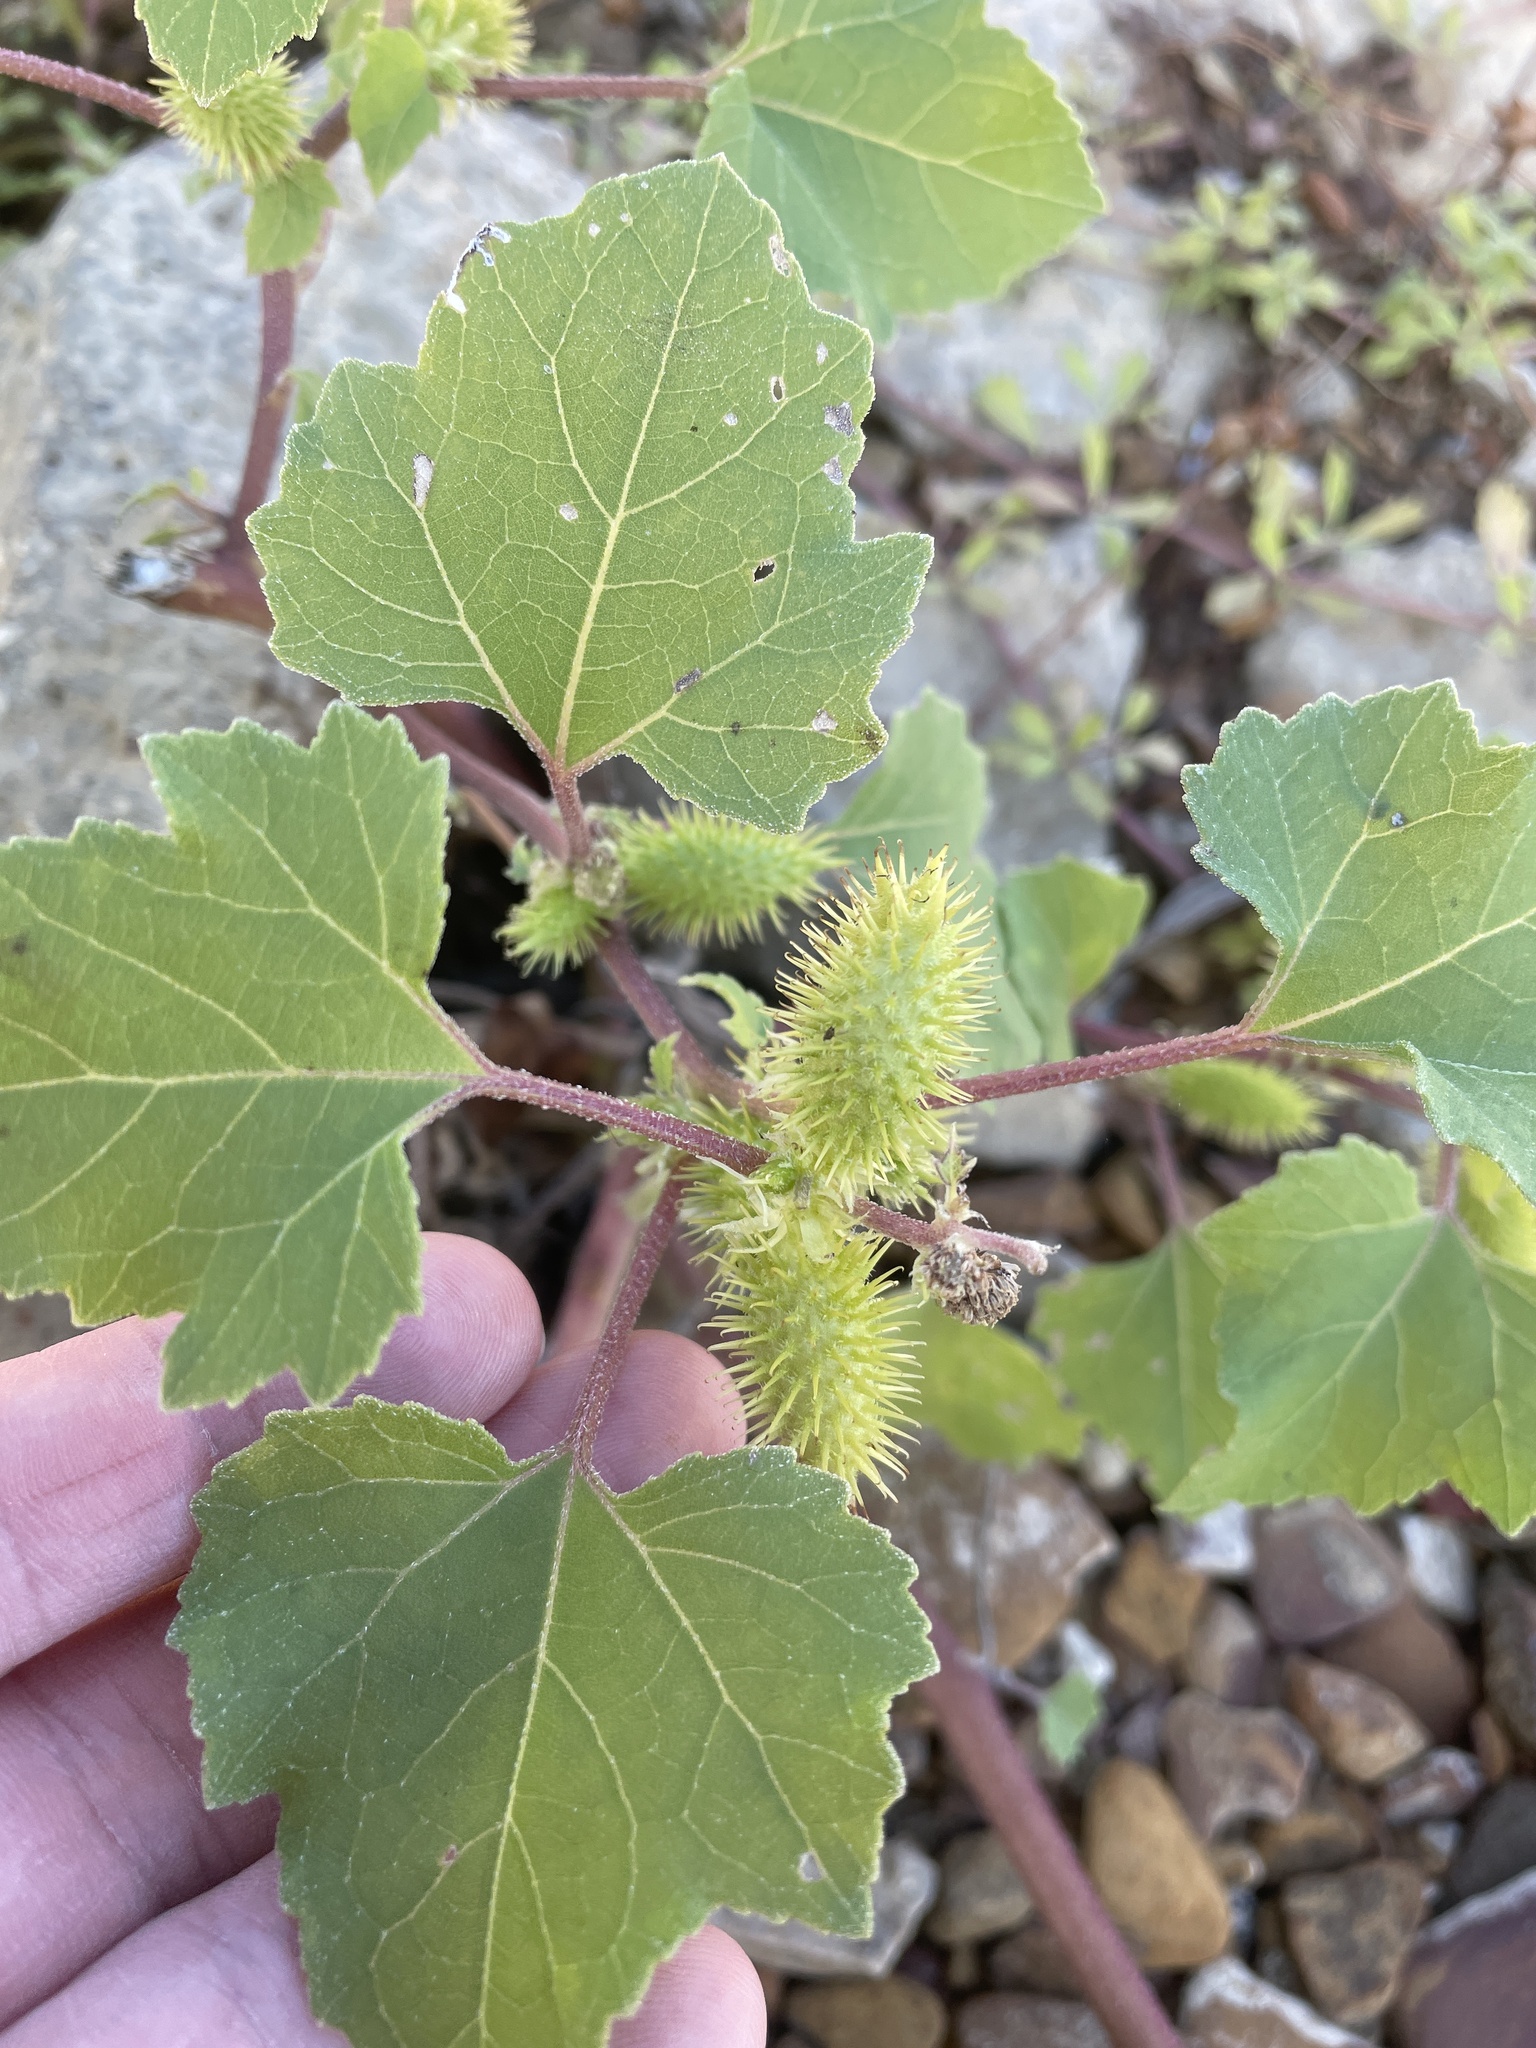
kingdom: Plantae
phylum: Tracheophyta
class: Magnoliopsida
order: Asterales
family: Asteraceae
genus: Xanthium
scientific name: Xanthium strumarium
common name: Rough cocklebur
